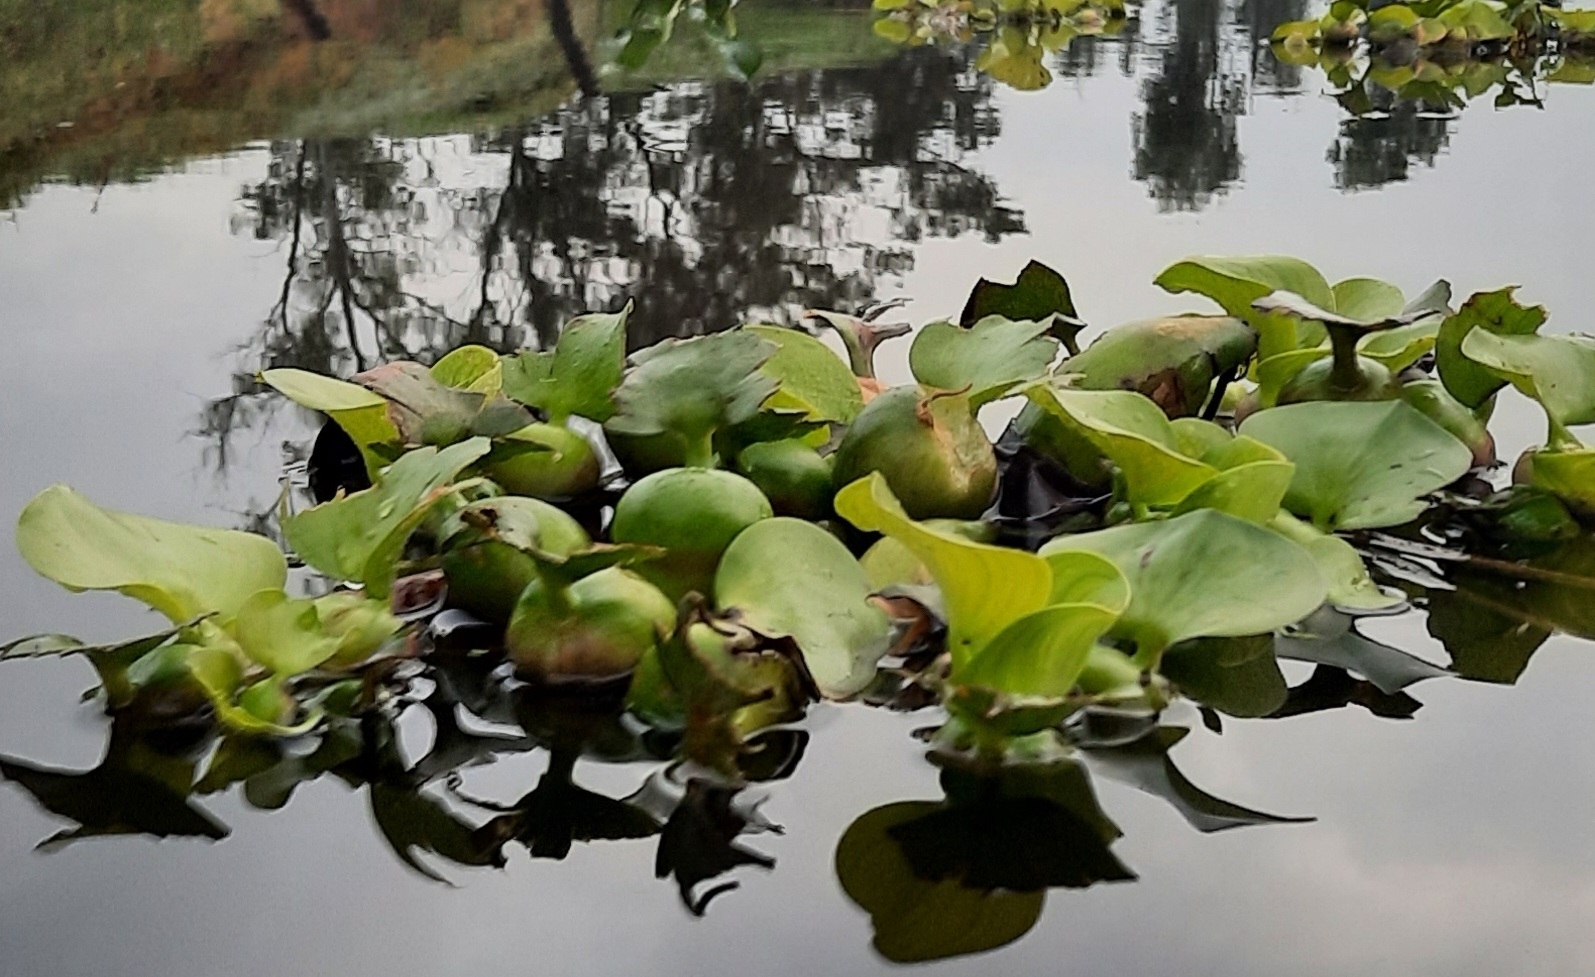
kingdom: Plantae
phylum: Tracheophyta
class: Liliopsida
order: Commelinales
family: Pontederiaceae
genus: Pontederia
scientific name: Pontederia crassipes
